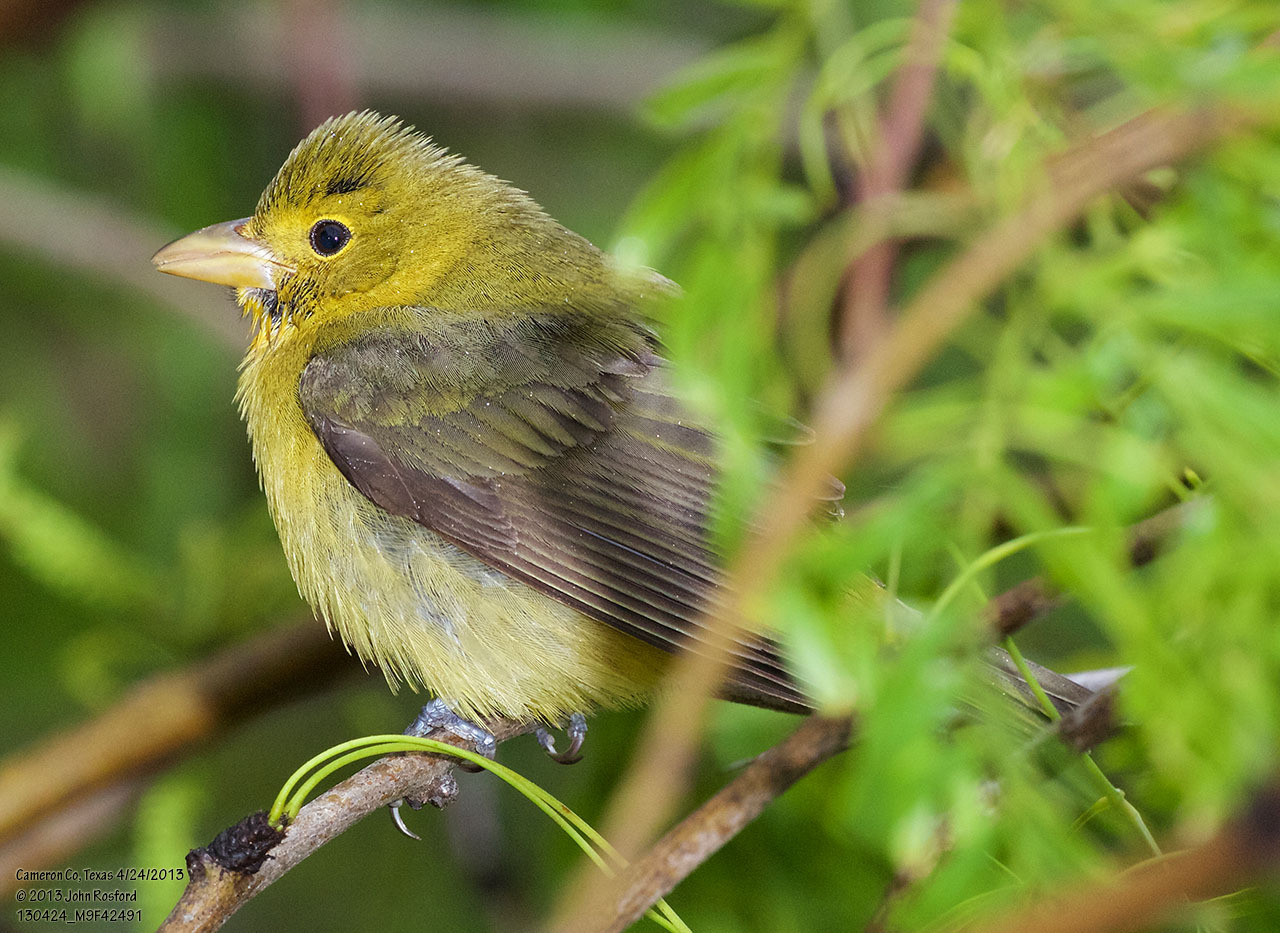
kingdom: Animalia
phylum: Chordata
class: Aves
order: Passeriformes
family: Cardinalidae
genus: Piranga
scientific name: Piranga olivacea
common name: Scarlet tanager
